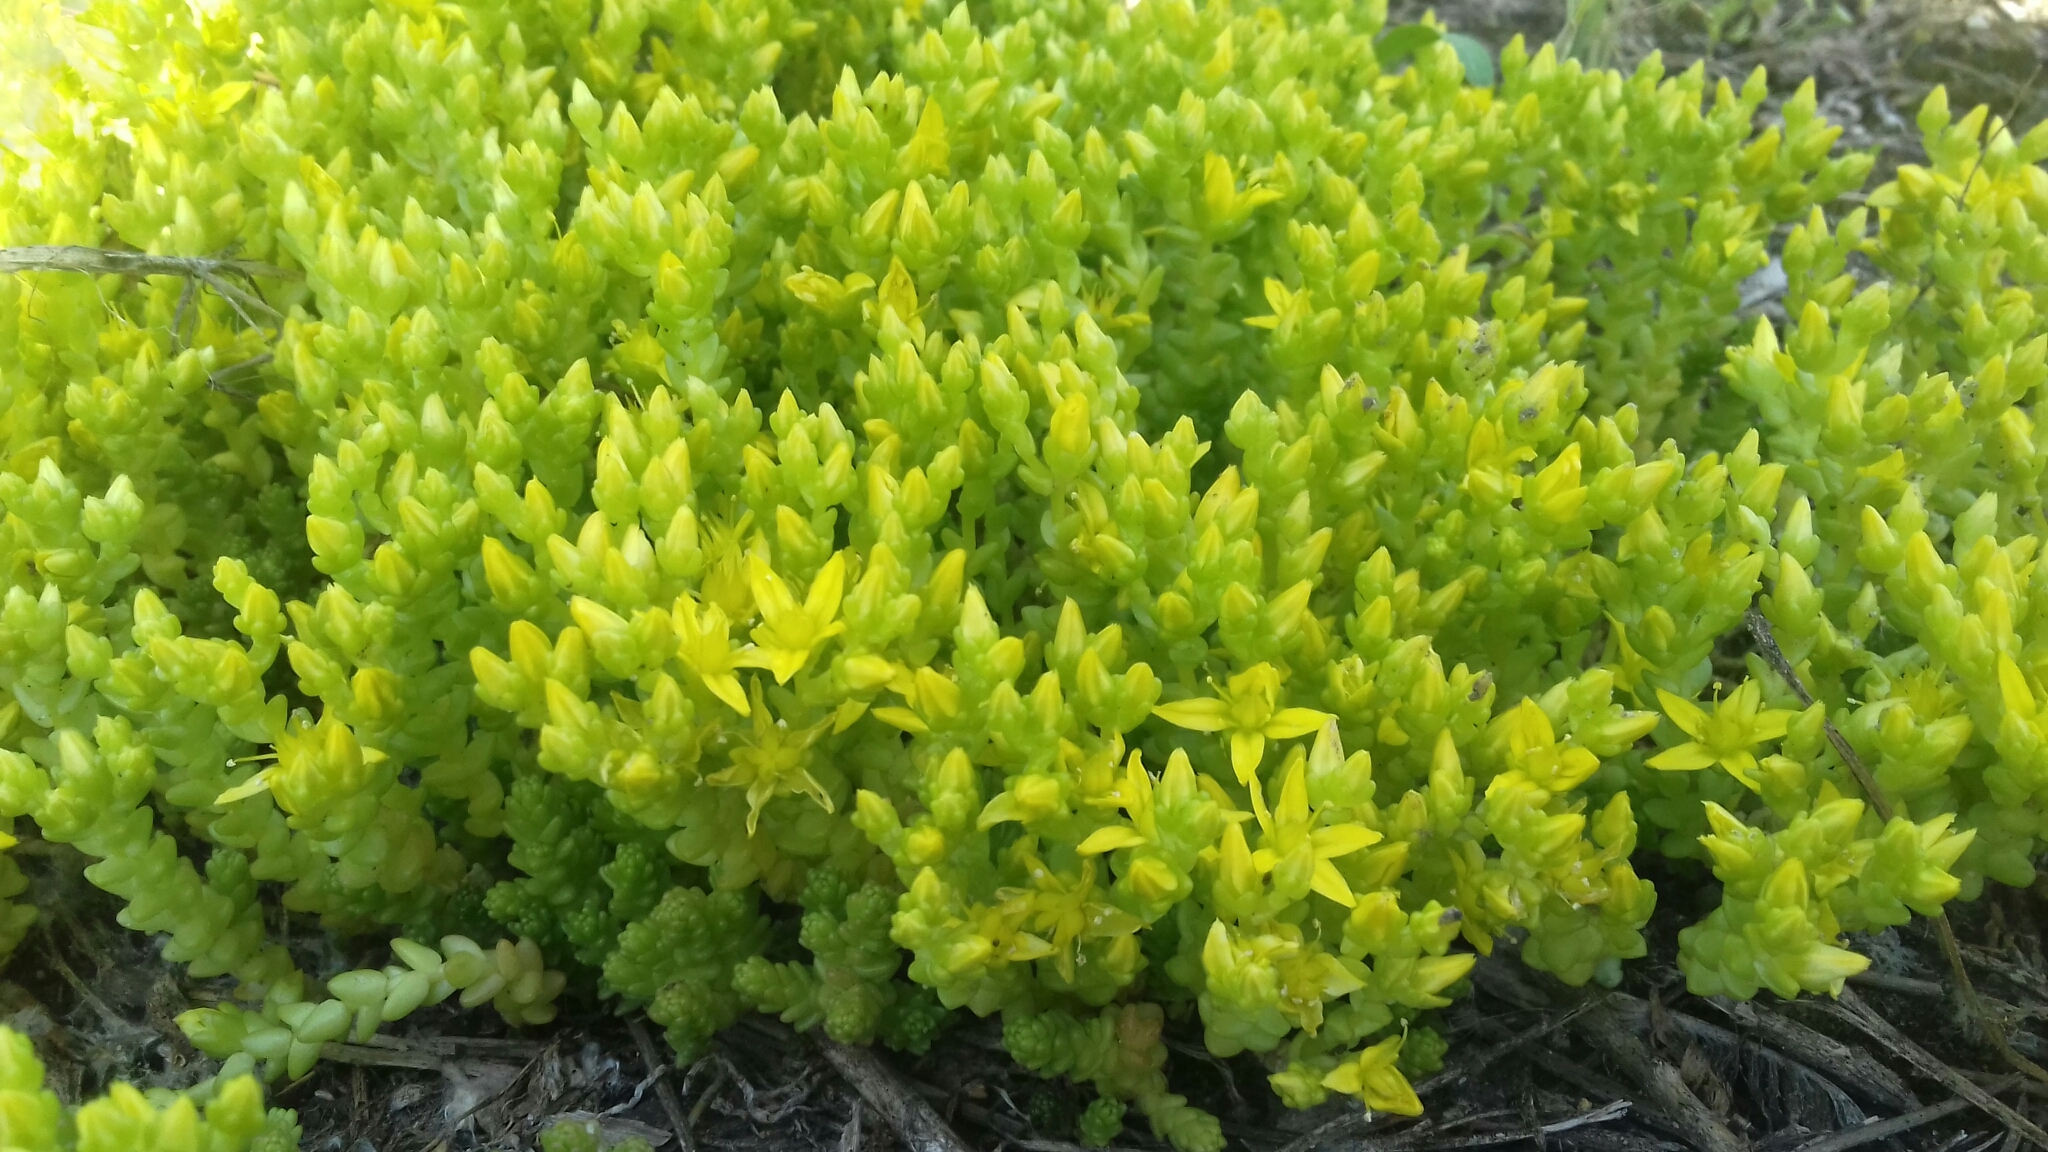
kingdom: Plantae
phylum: Tracheophyta
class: Magnoliopsida
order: Saxifragales
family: Crassulaceae
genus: Sedum
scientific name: Sedum acre
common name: Biting stonecrop
